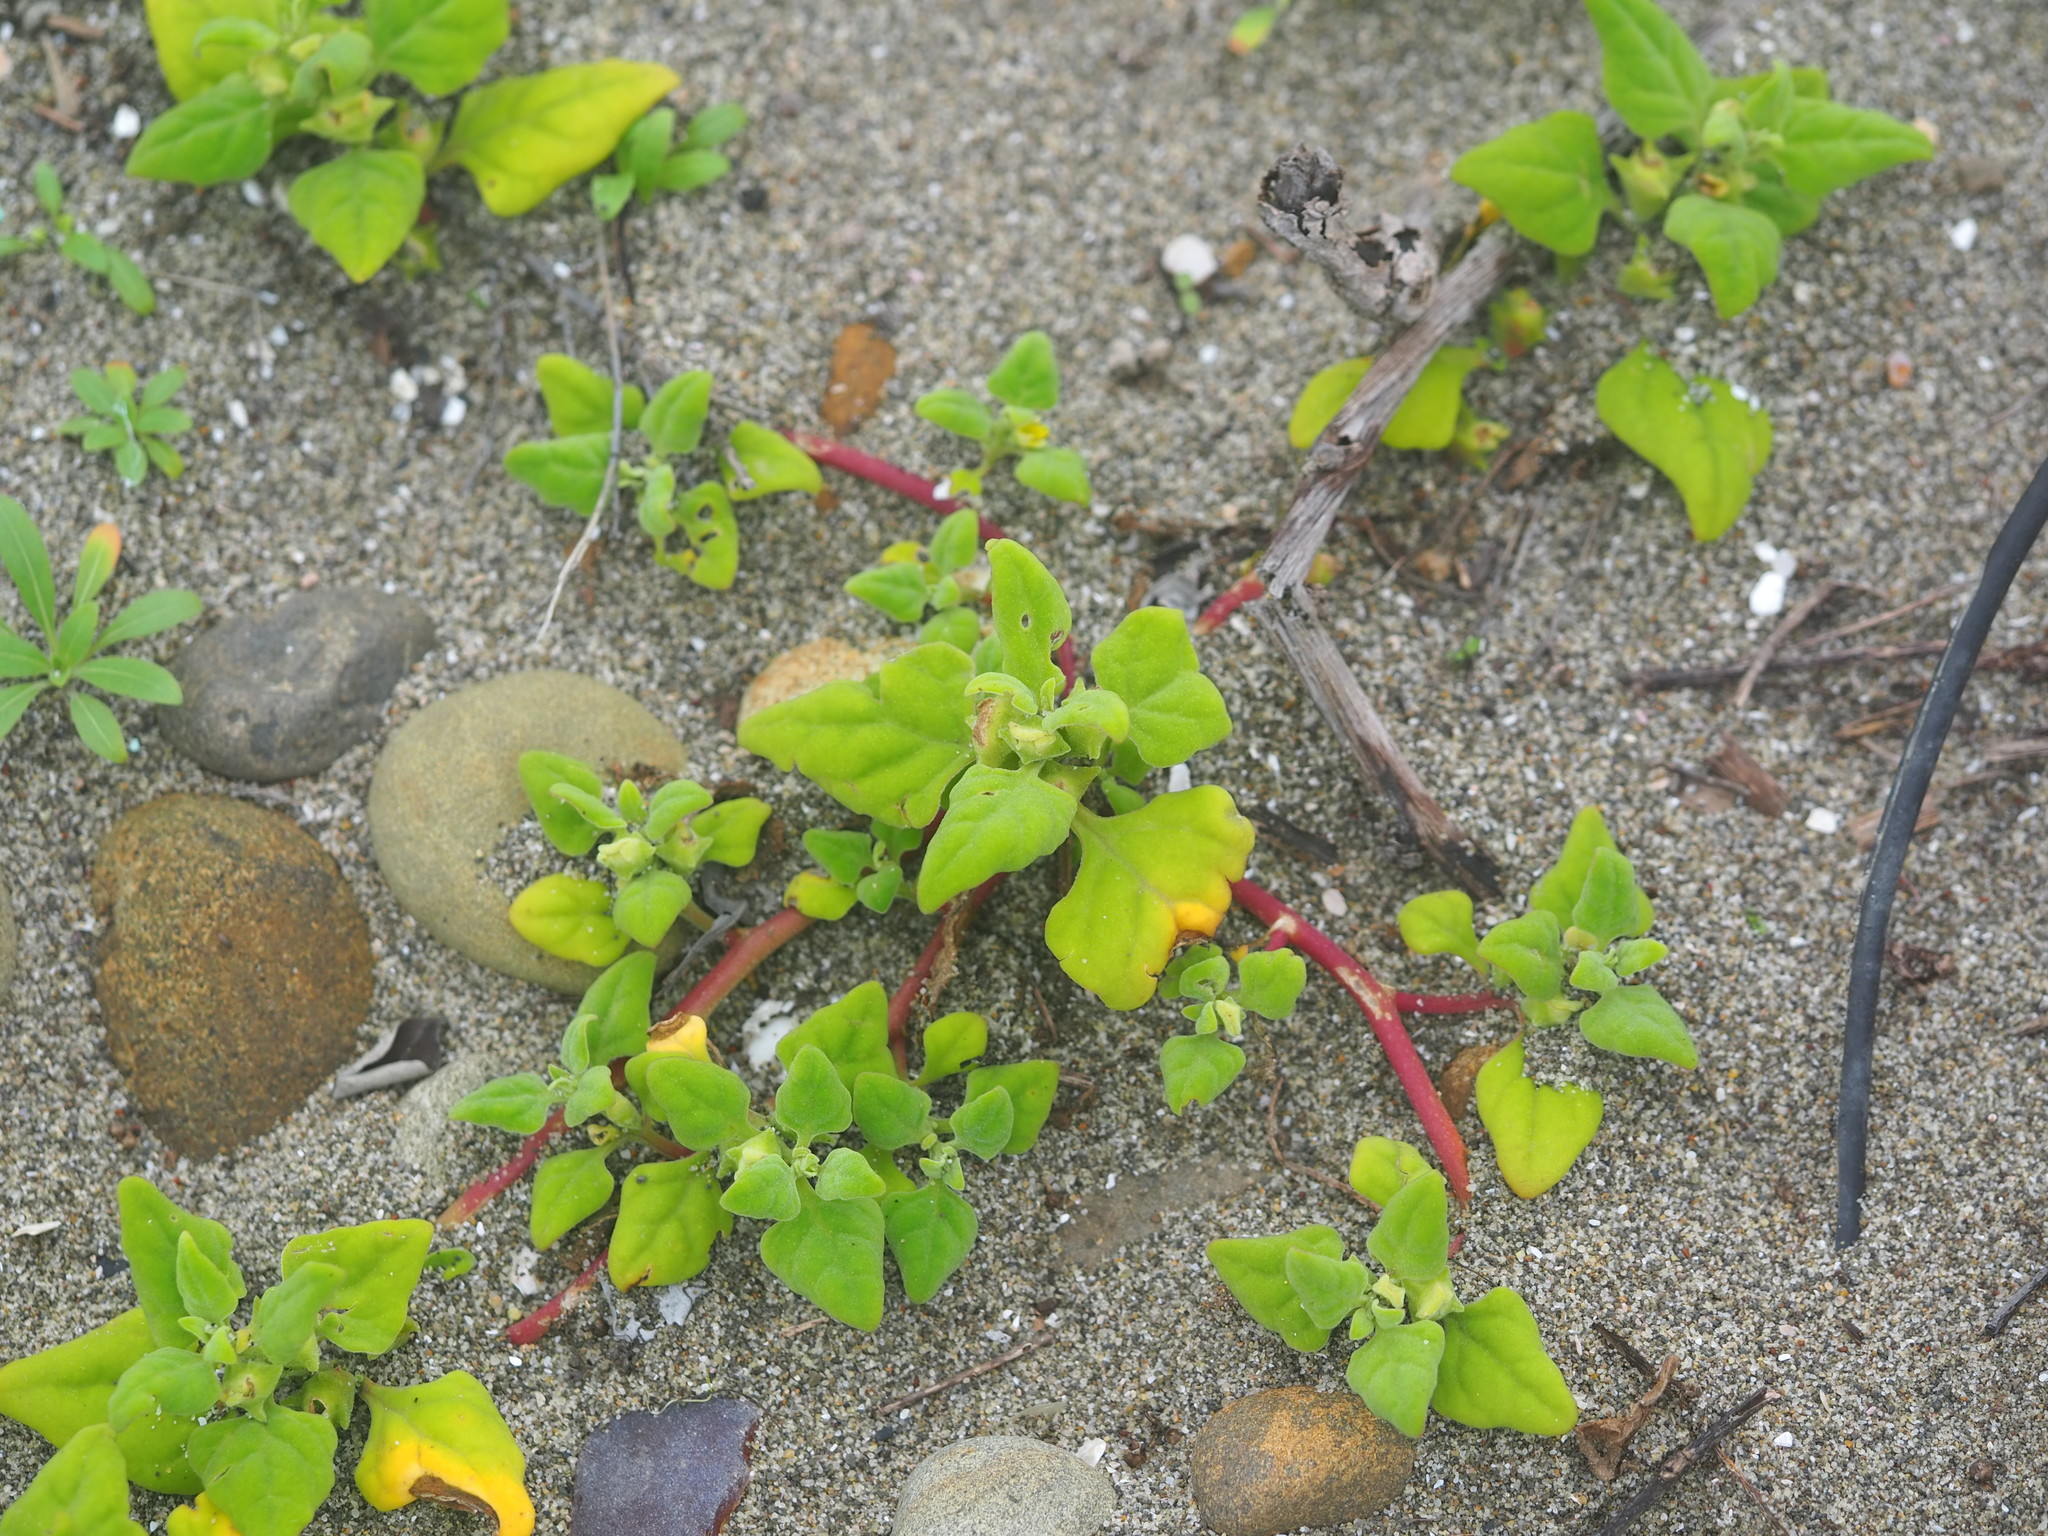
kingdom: Plantae
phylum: Tracheophyta
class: Magnoliopsida
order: Caryophyllales
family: Aizoaceae
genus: Tetragonia
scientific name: Tetragonia tetragonoides
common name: New zealand-spinach
